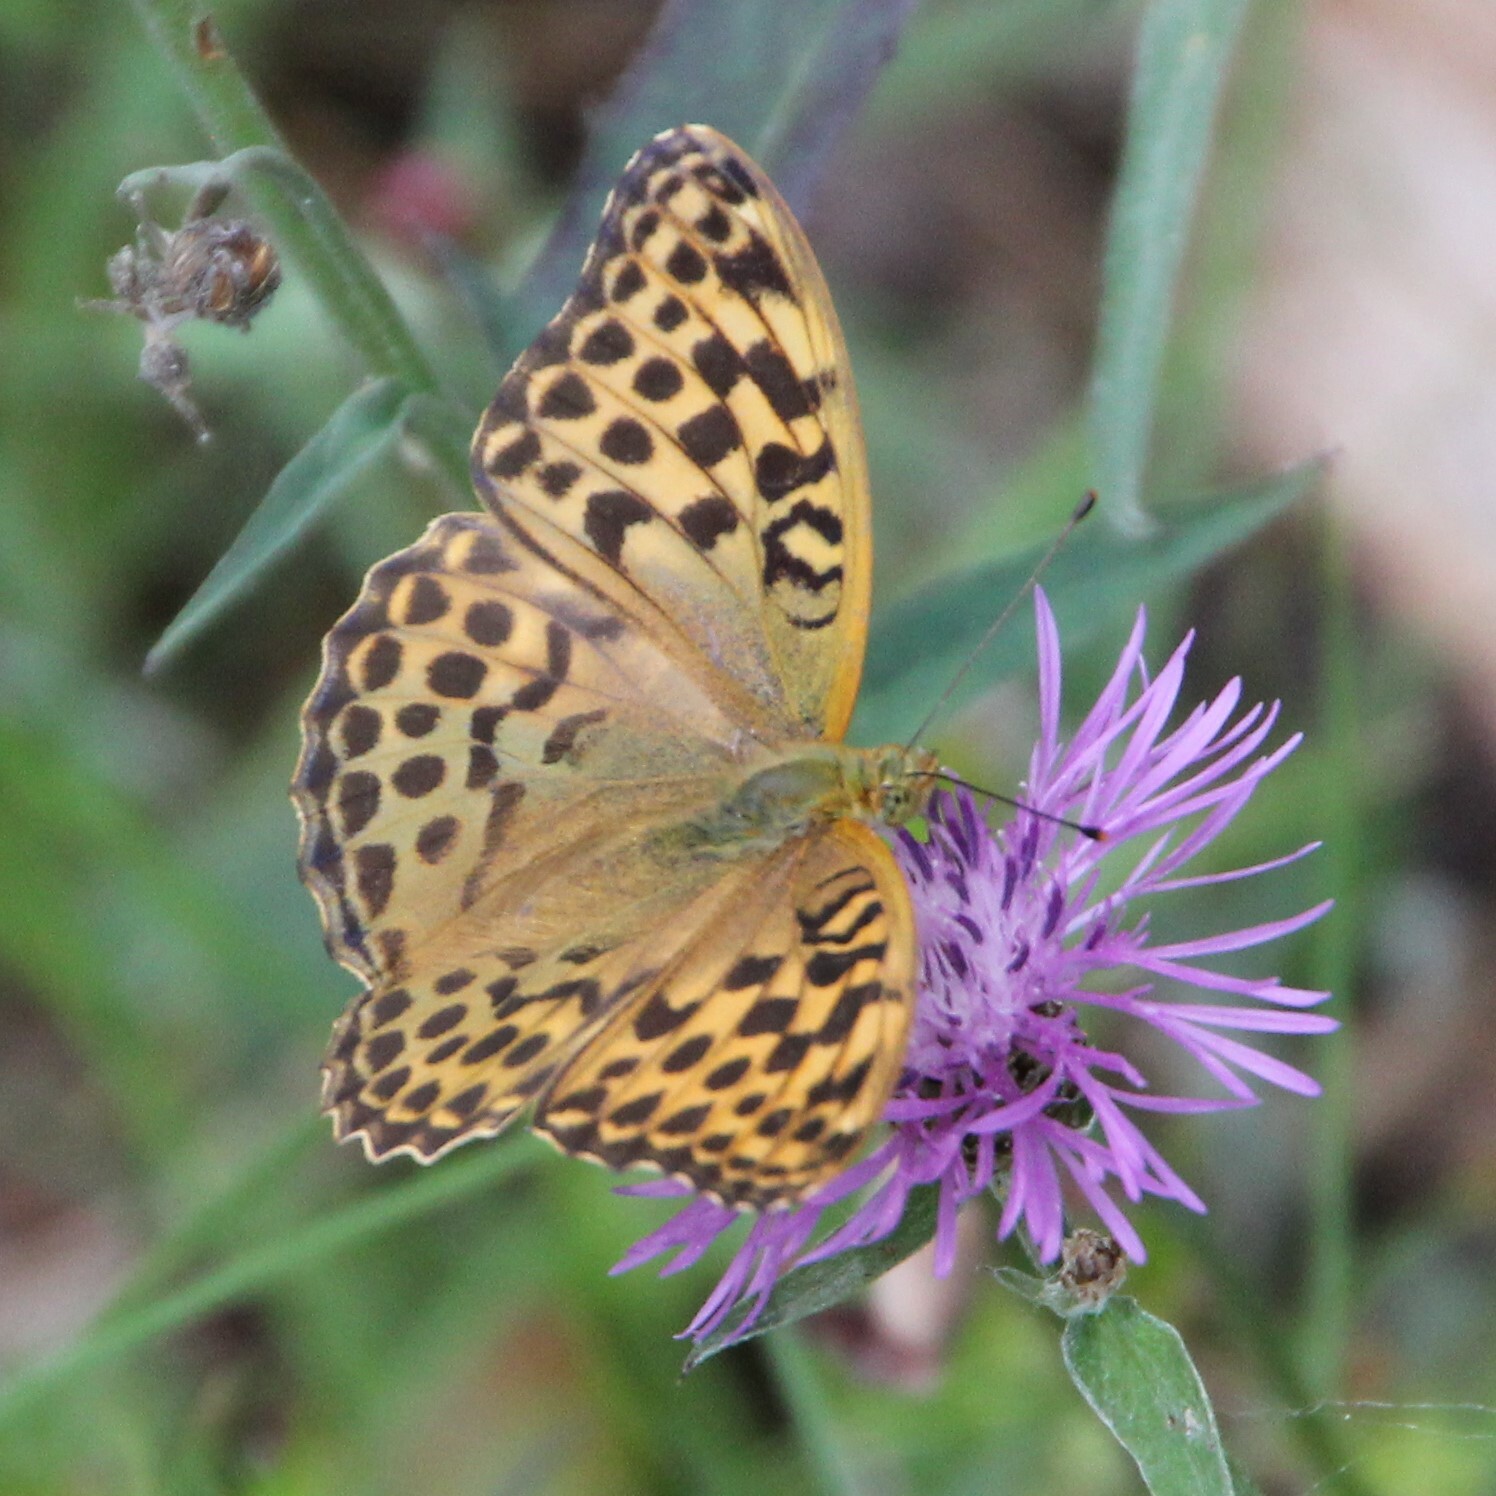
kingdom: Animalia
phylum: Arthropoda
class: Insecta
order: Lepidoptera
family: Nymphalidae
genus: Argynnis
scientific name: Argynnis paphia
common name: Silver-washed fritillary
